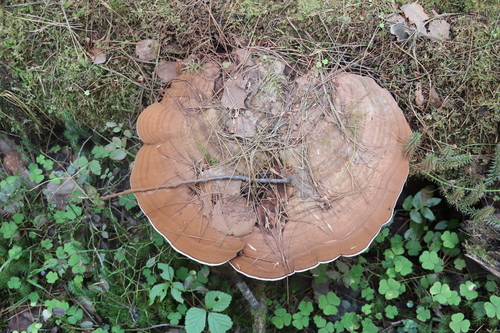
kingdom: Fungi
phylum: Basidiomycota
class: Agaricomycetes
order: Polyporales
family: Polyporaceae
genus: Ganoderma
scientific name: Ganoderma applanatum
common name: Artist's bracket
